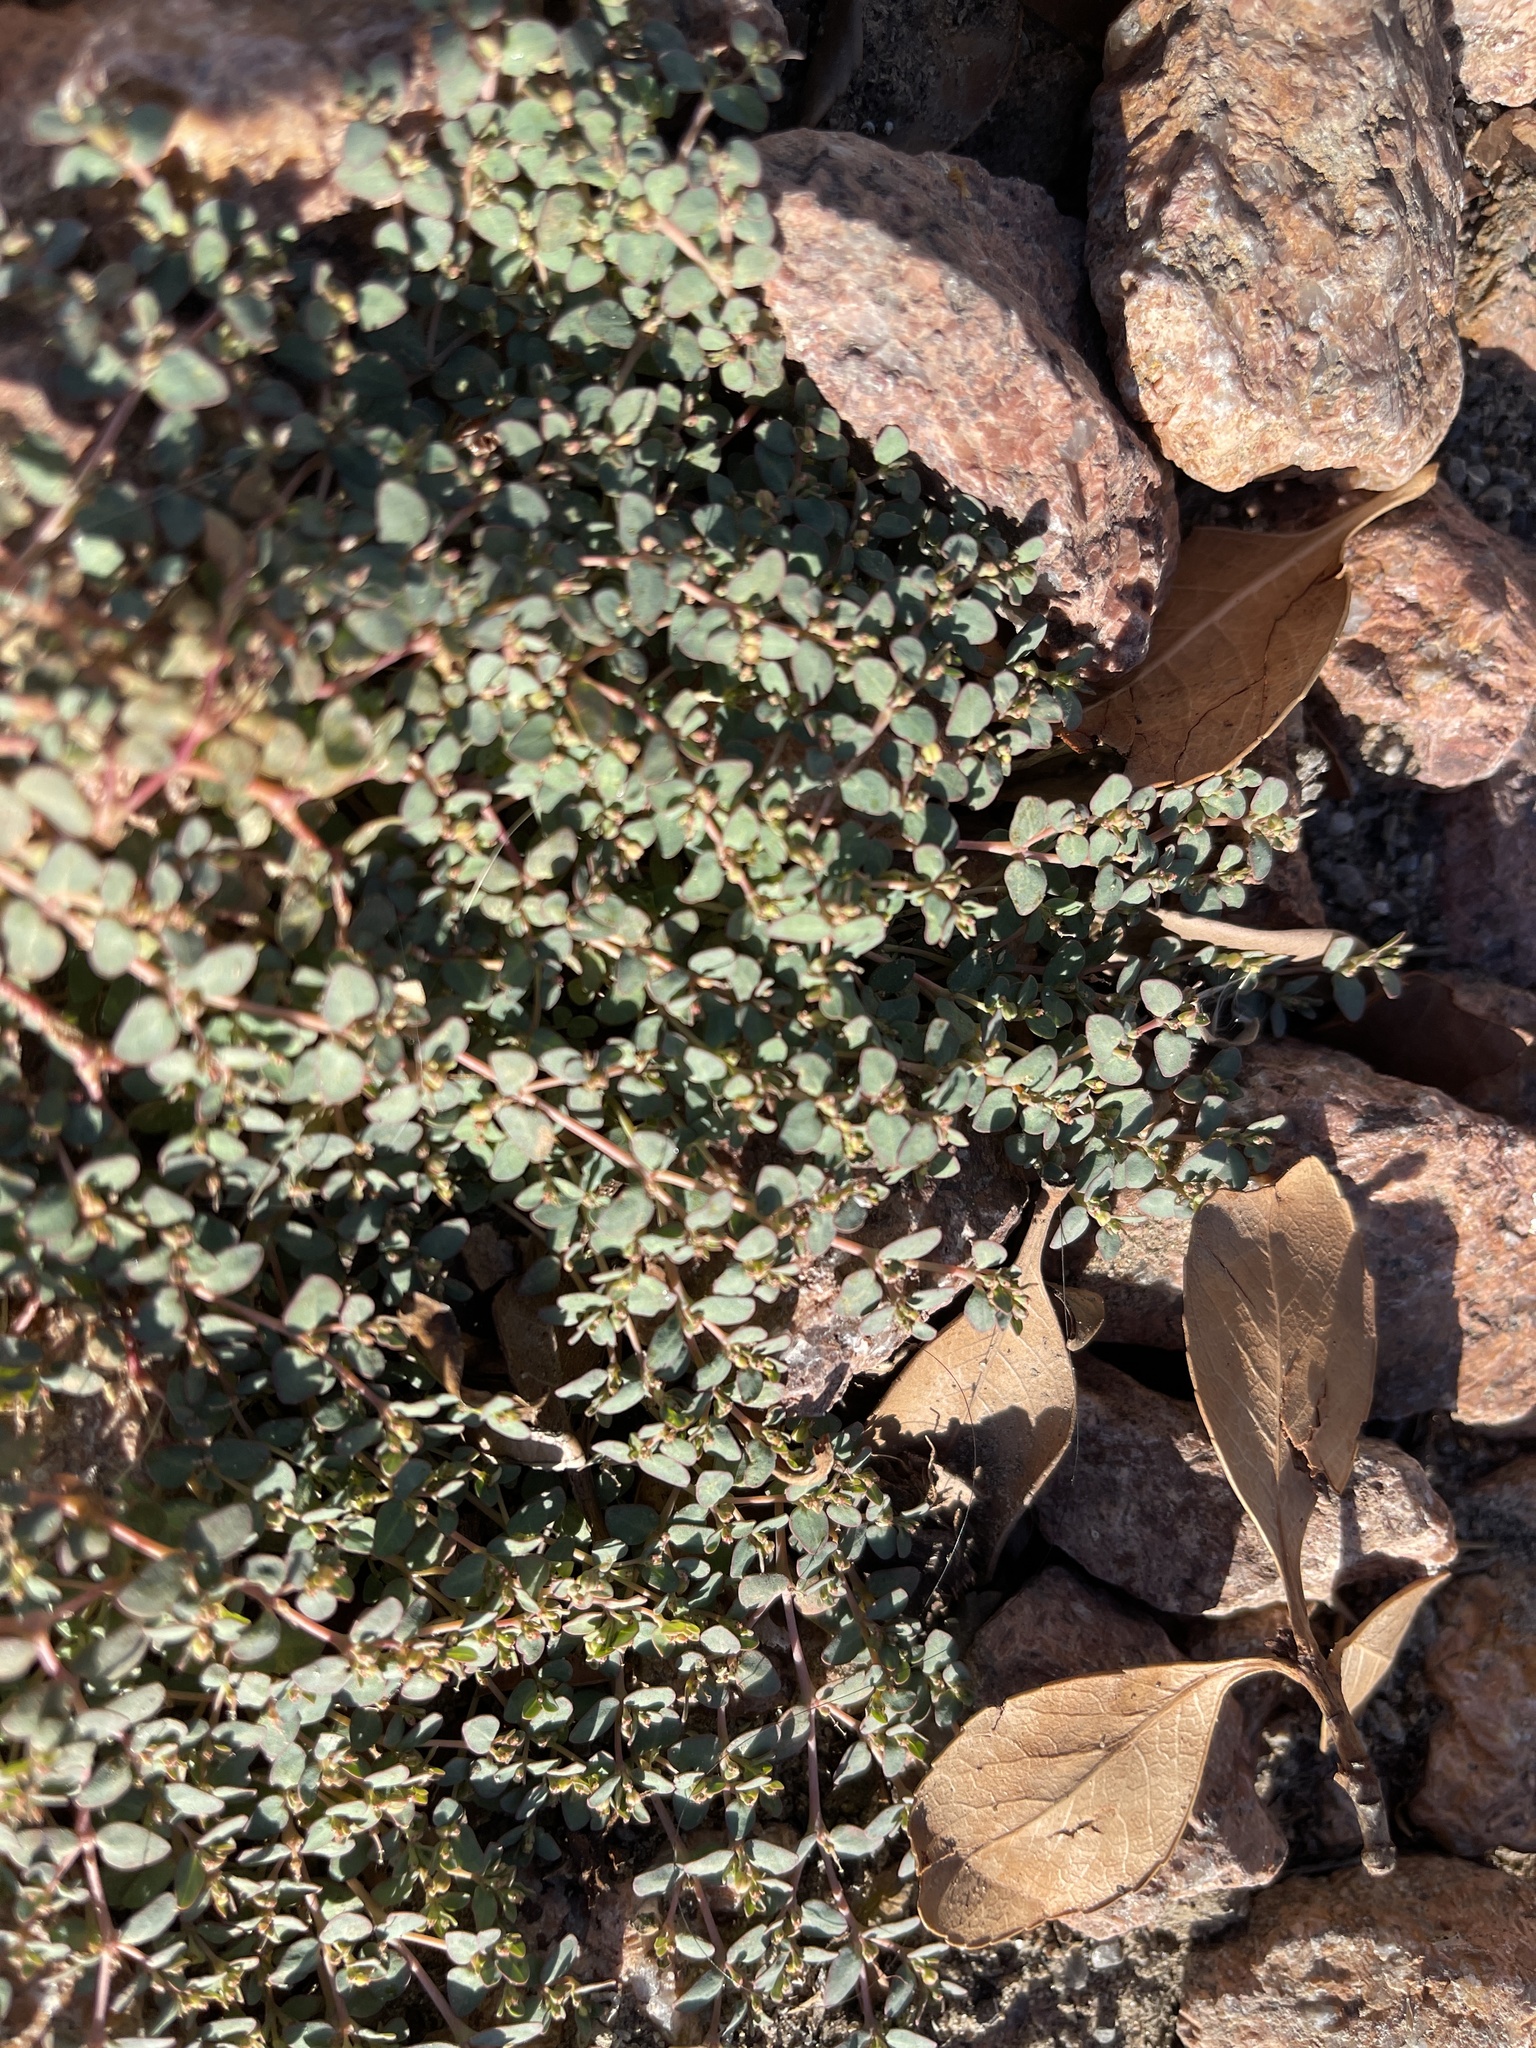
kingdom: Plantae
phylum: Tracheophyta
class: Magnoliopsida
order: Malpighiales
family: Euphorbiaceae
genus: Euphorbia
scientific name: Euphorbia micromera
